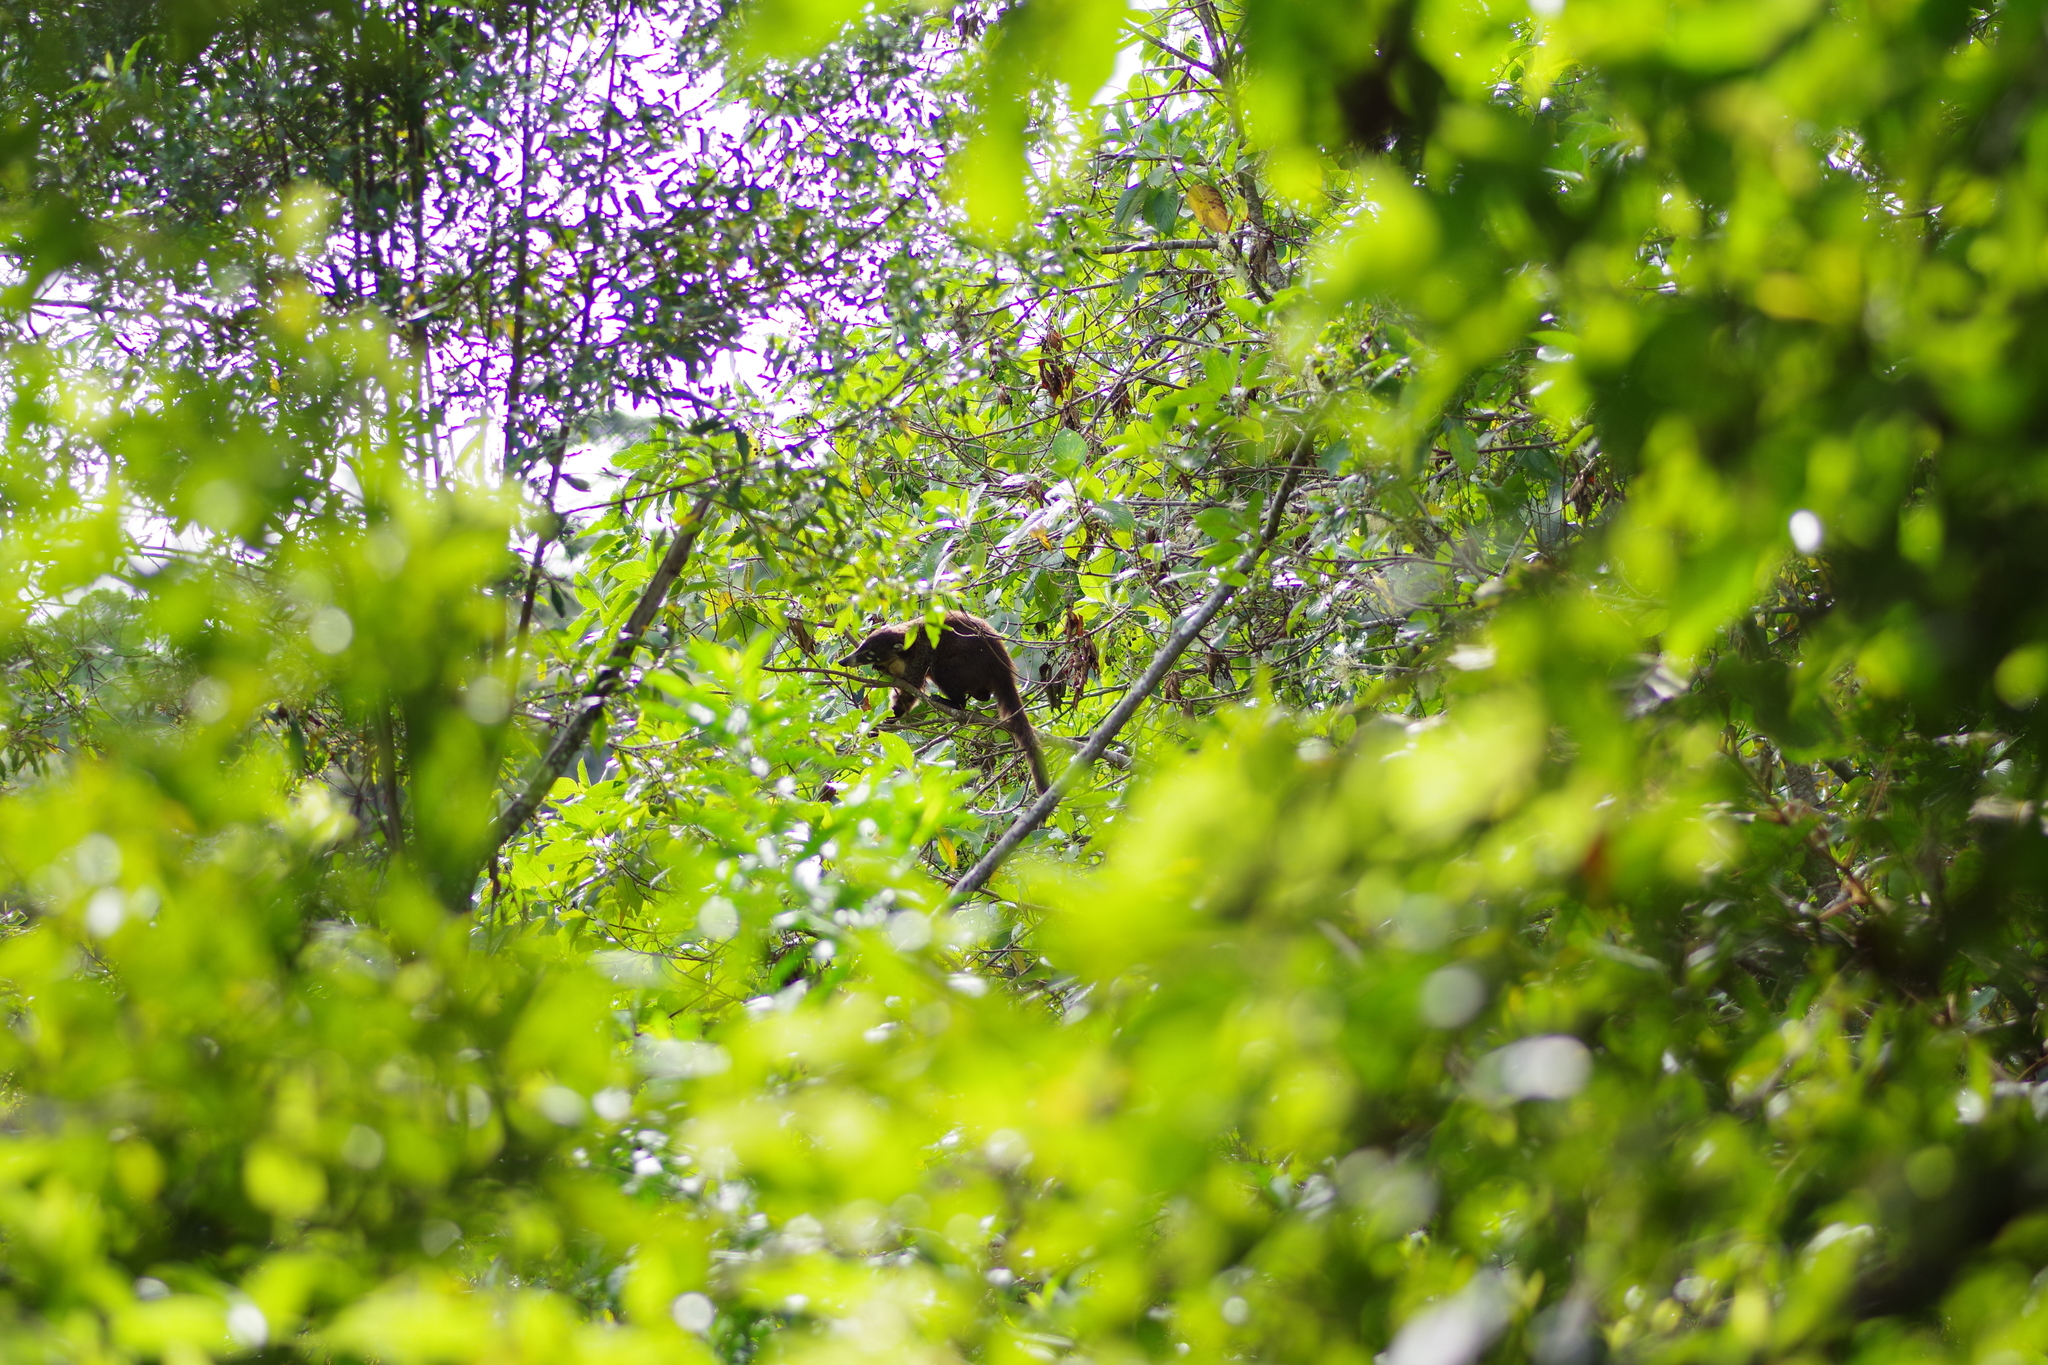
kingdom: Animalia
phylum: Chordata
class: Mammalia
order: Carnivora
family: Procyonidae
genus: Nasua
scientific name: Nasua narica
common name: White-nosed coati
